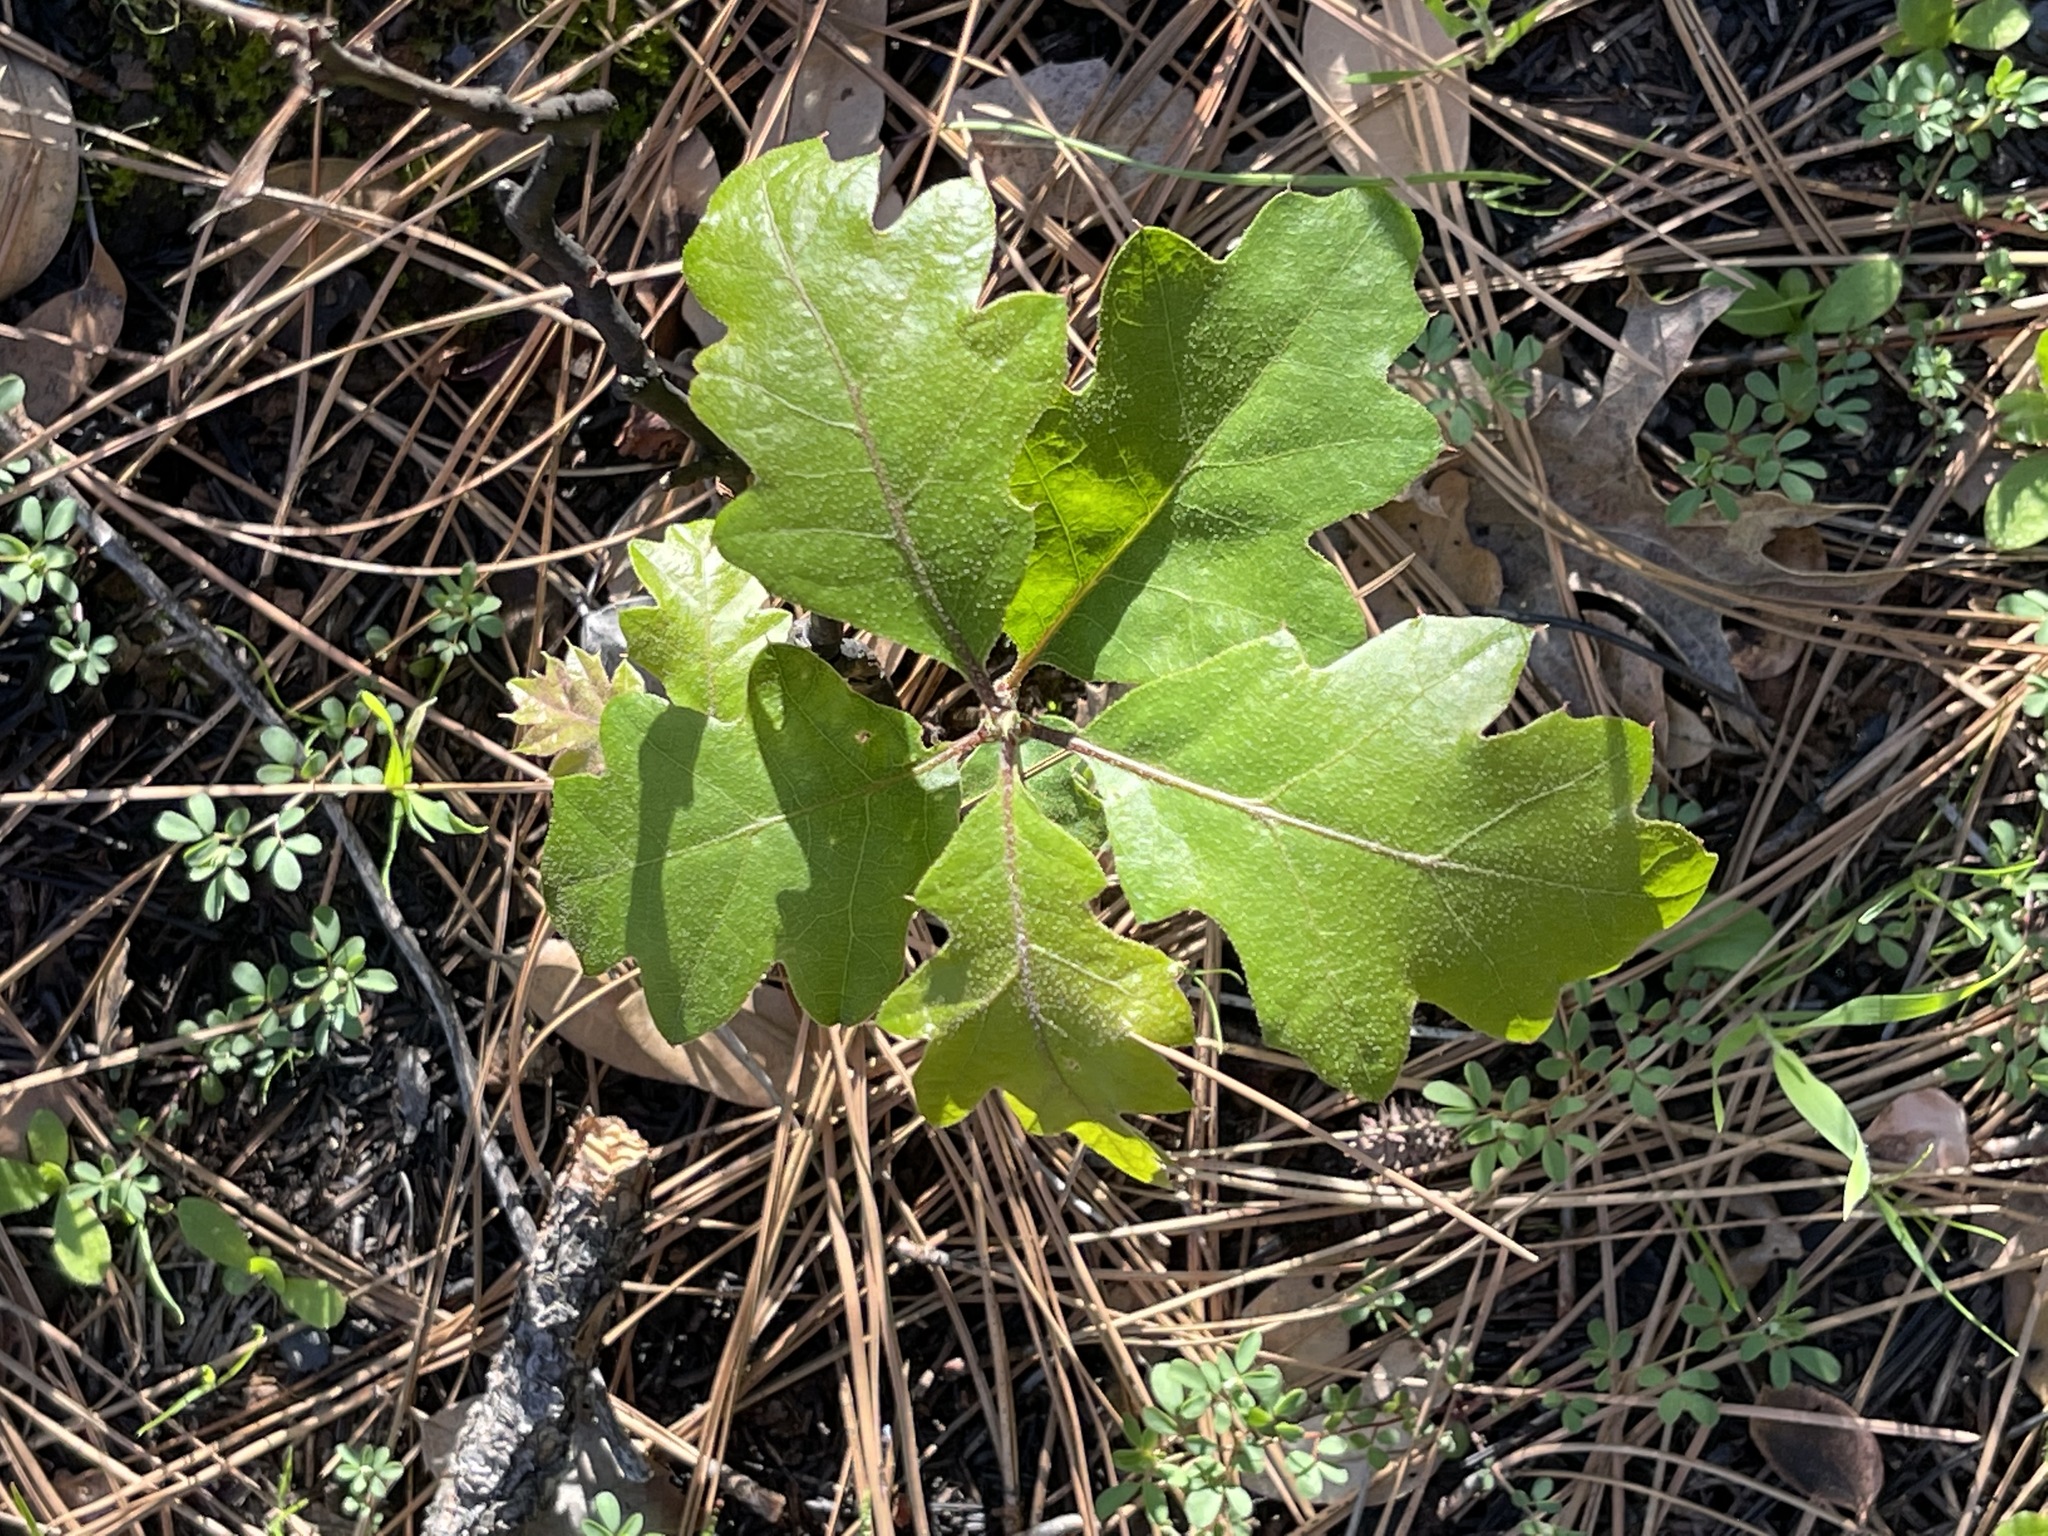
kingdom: Plantae
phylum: Tracheophyta
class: Magnoliopsida
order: Fagales
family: Fagaceae
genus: Quercus
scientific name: Quercus kelloggii
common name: California black oak
